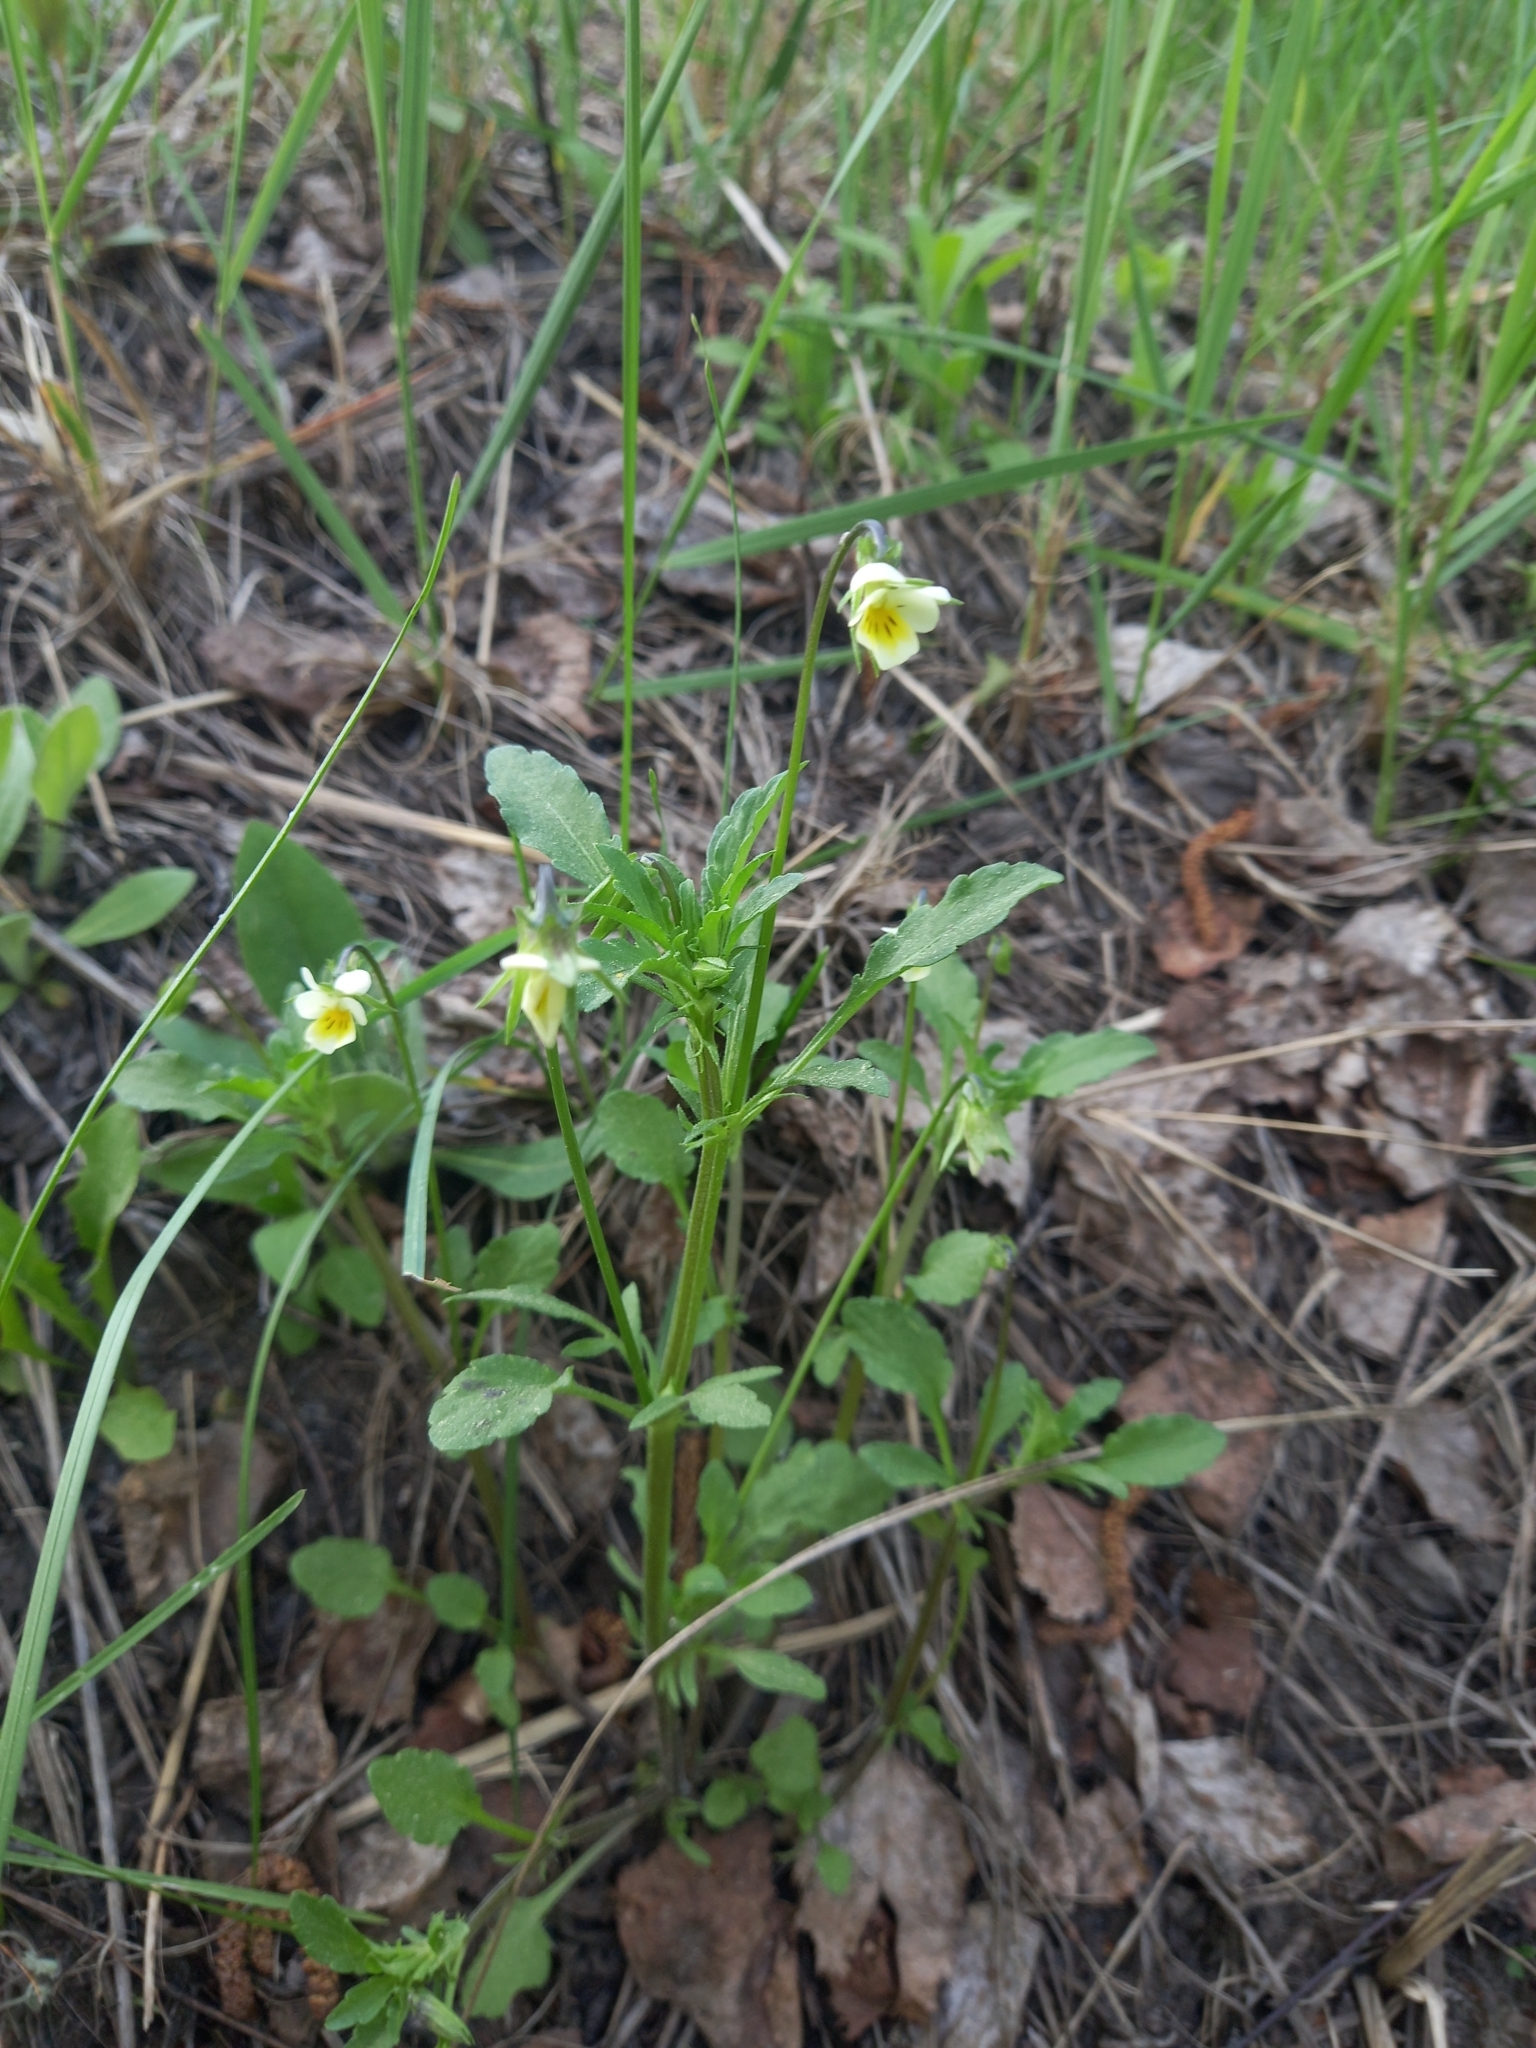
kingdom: Plantae
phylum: Tracheophyta
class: Magnoliopsida
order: Malpighiales
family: Violaceae
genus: Viola
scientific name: Viola arvensis
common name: Field pansy
